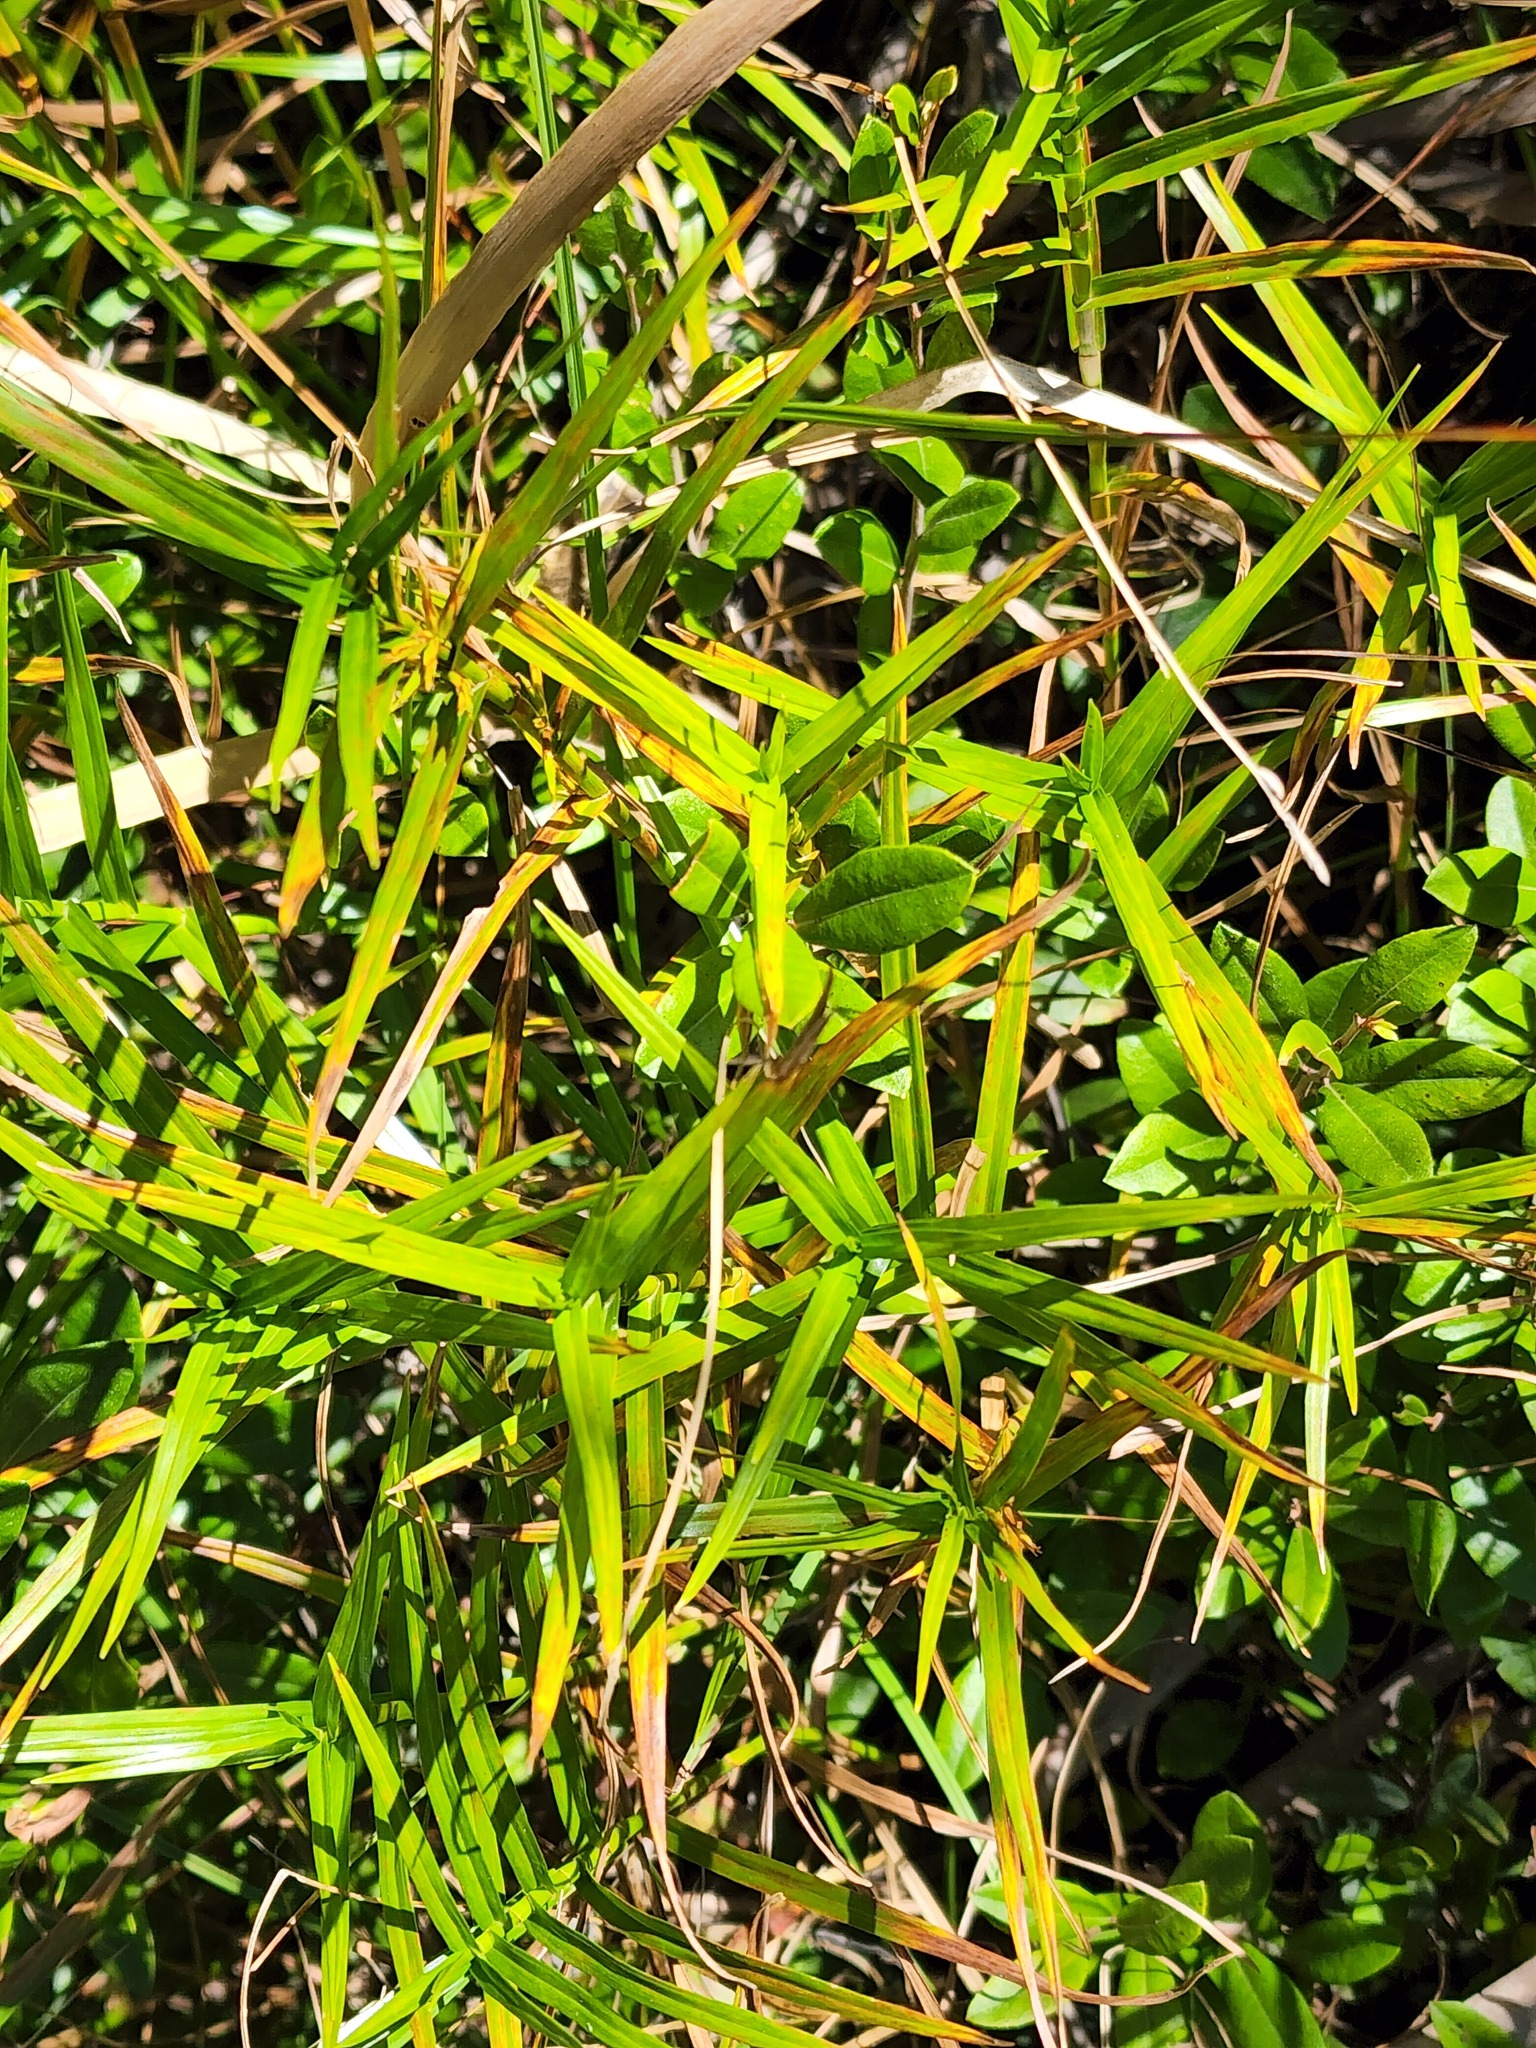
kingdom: Plantae
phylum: Tracheophyta
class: Liliopsida
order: Poales
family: Cyperaceae
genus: Dulichium
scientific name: Dulichium arundinaceum
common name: Three-way sedge
